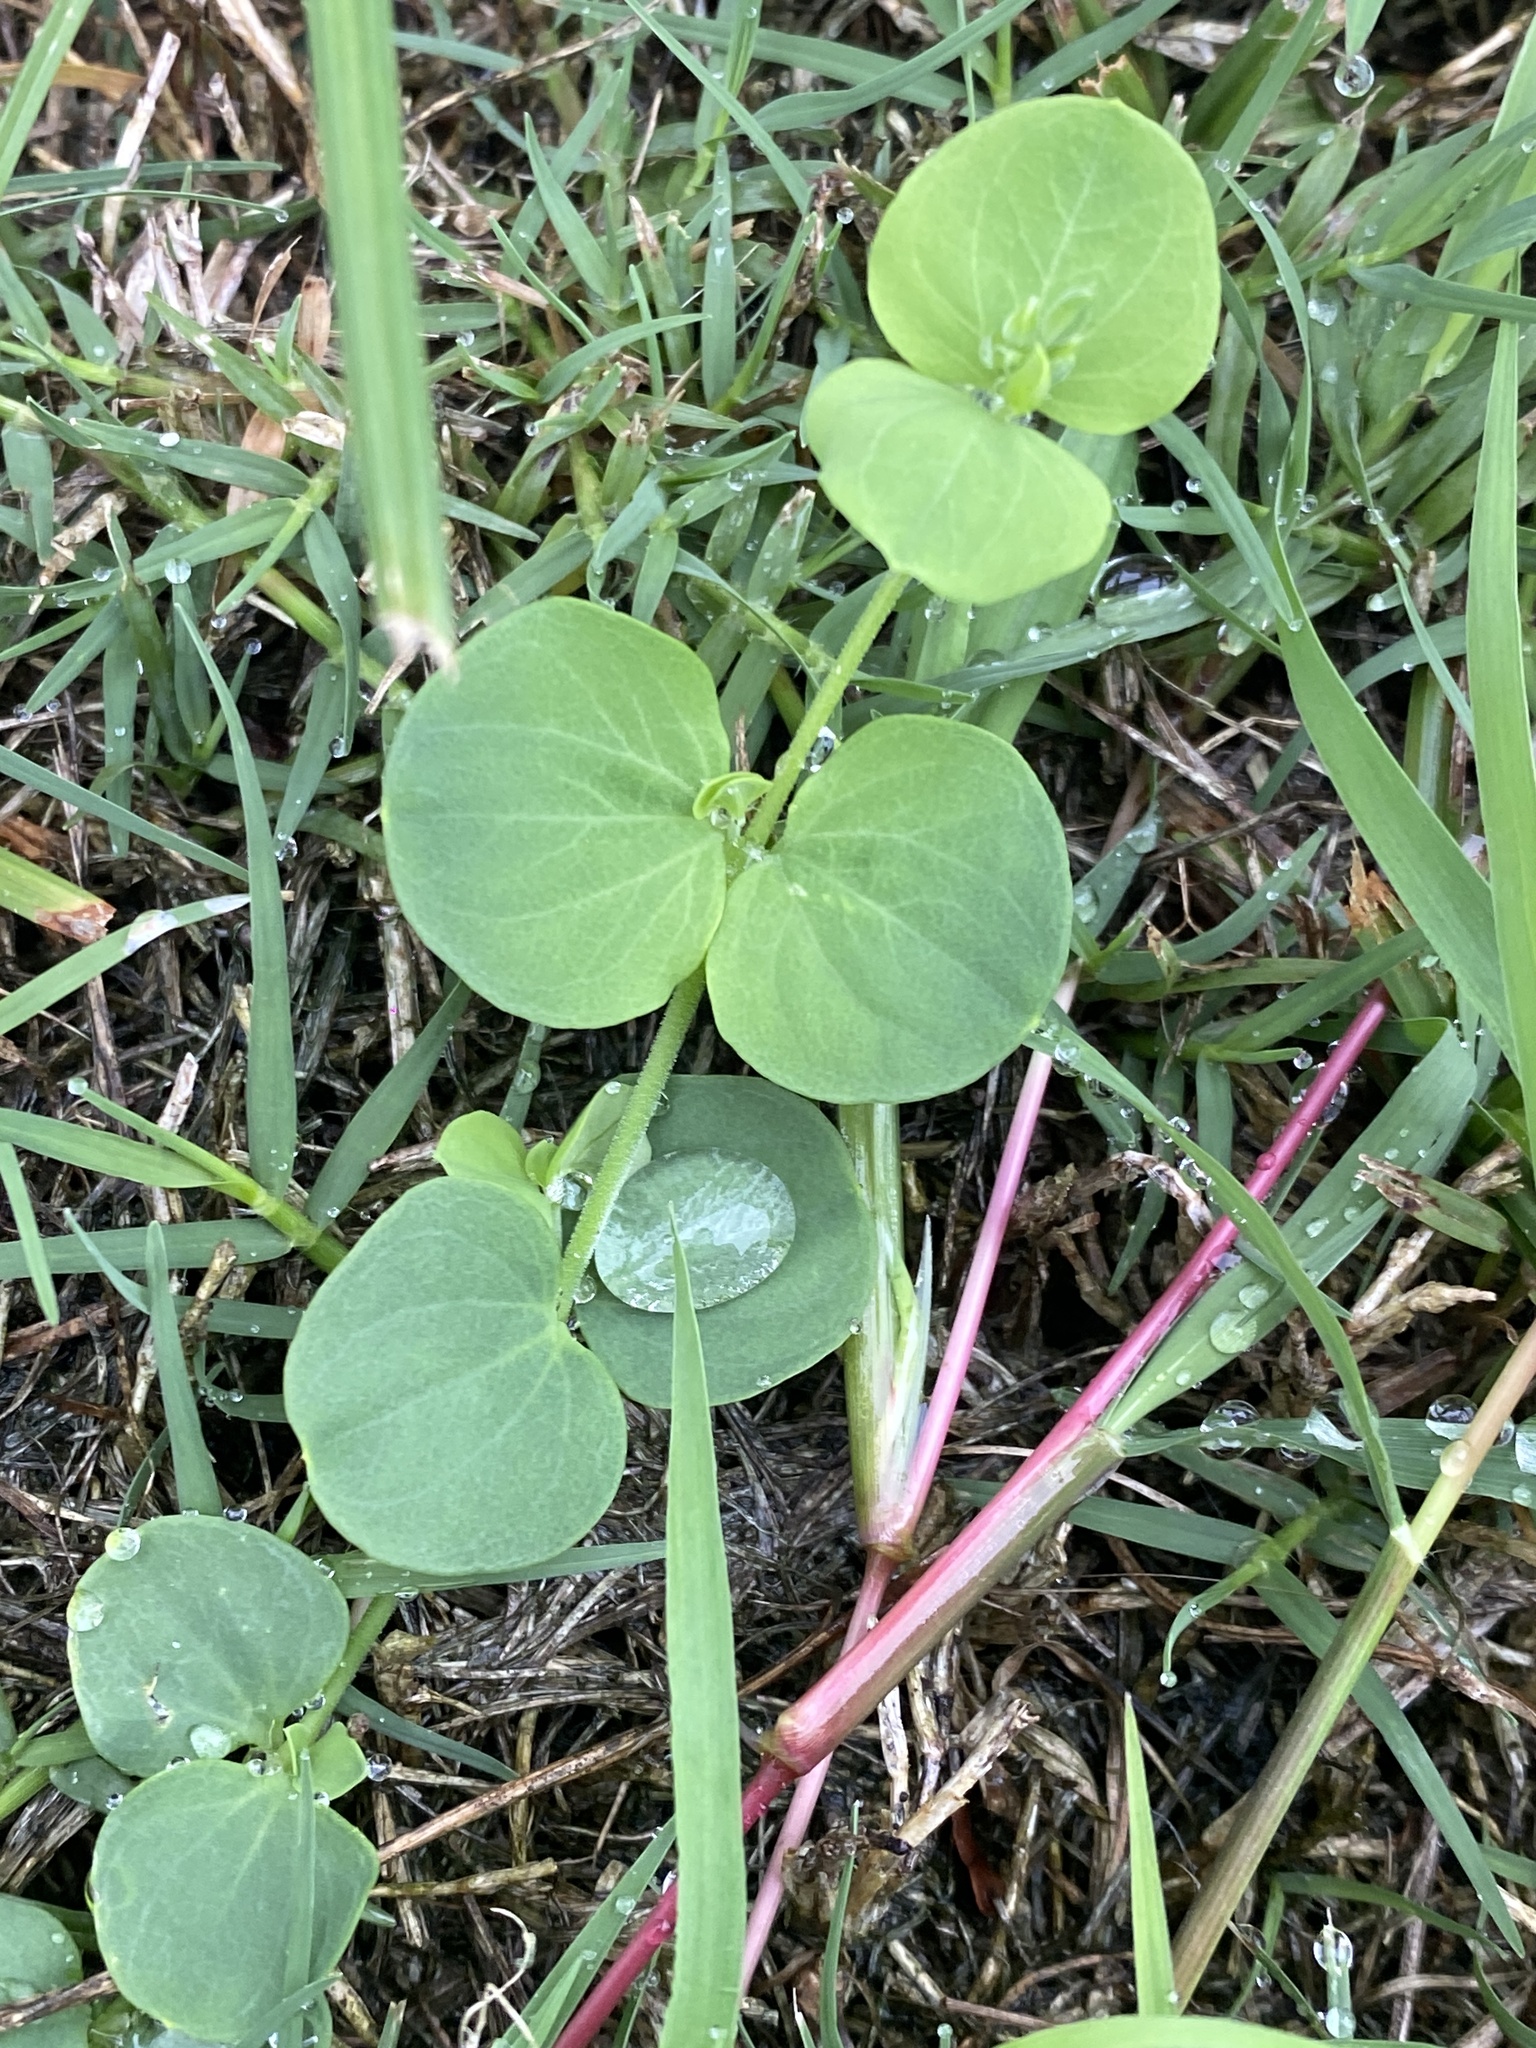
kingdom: Plantae
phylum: Tracheophyta
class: Magnoliopsida
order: Caryophyllales
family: Caryophyllaceae
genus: Drymaria
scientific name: Drymaria cordata
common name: Whitesnow
